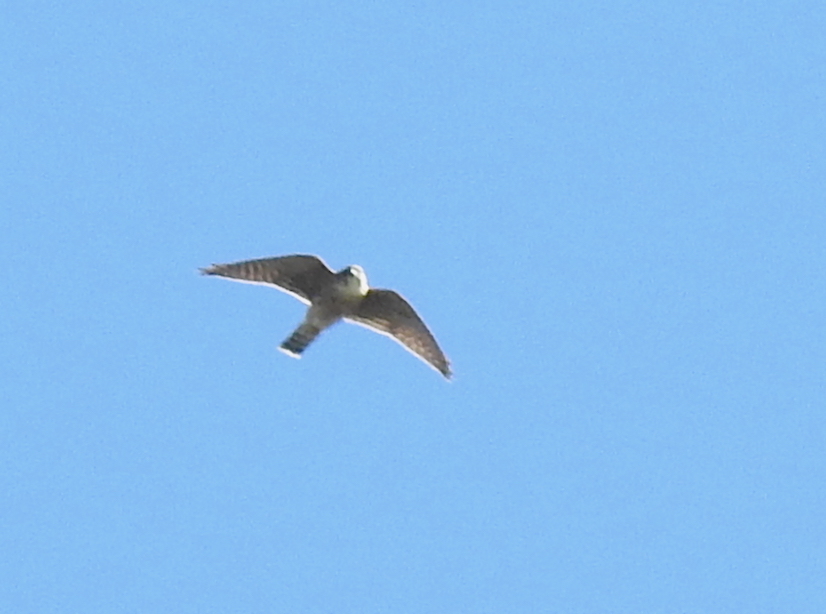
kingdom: Animalia
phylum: Chordata
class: Aves
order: Falconiformes
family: Falconidae
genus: Falco
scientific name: Falco columbarius
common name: Merlin
